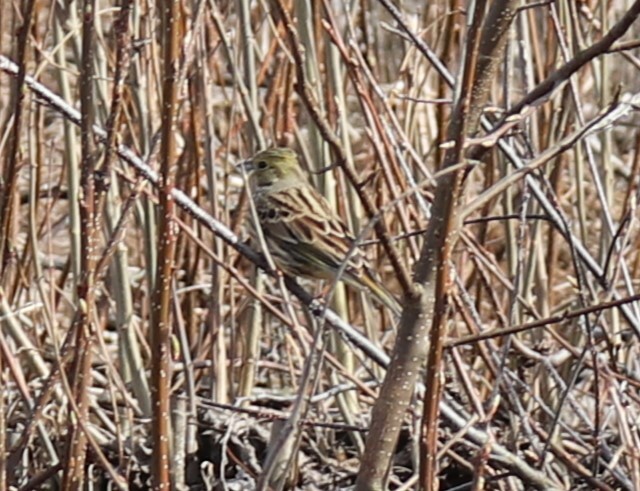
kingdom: Animalia
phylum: Chordata
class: Aves
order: Passeriformes
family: Emberizidae
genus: Emberiza
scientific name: Emberiza citrinella
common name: Yellowhammer
